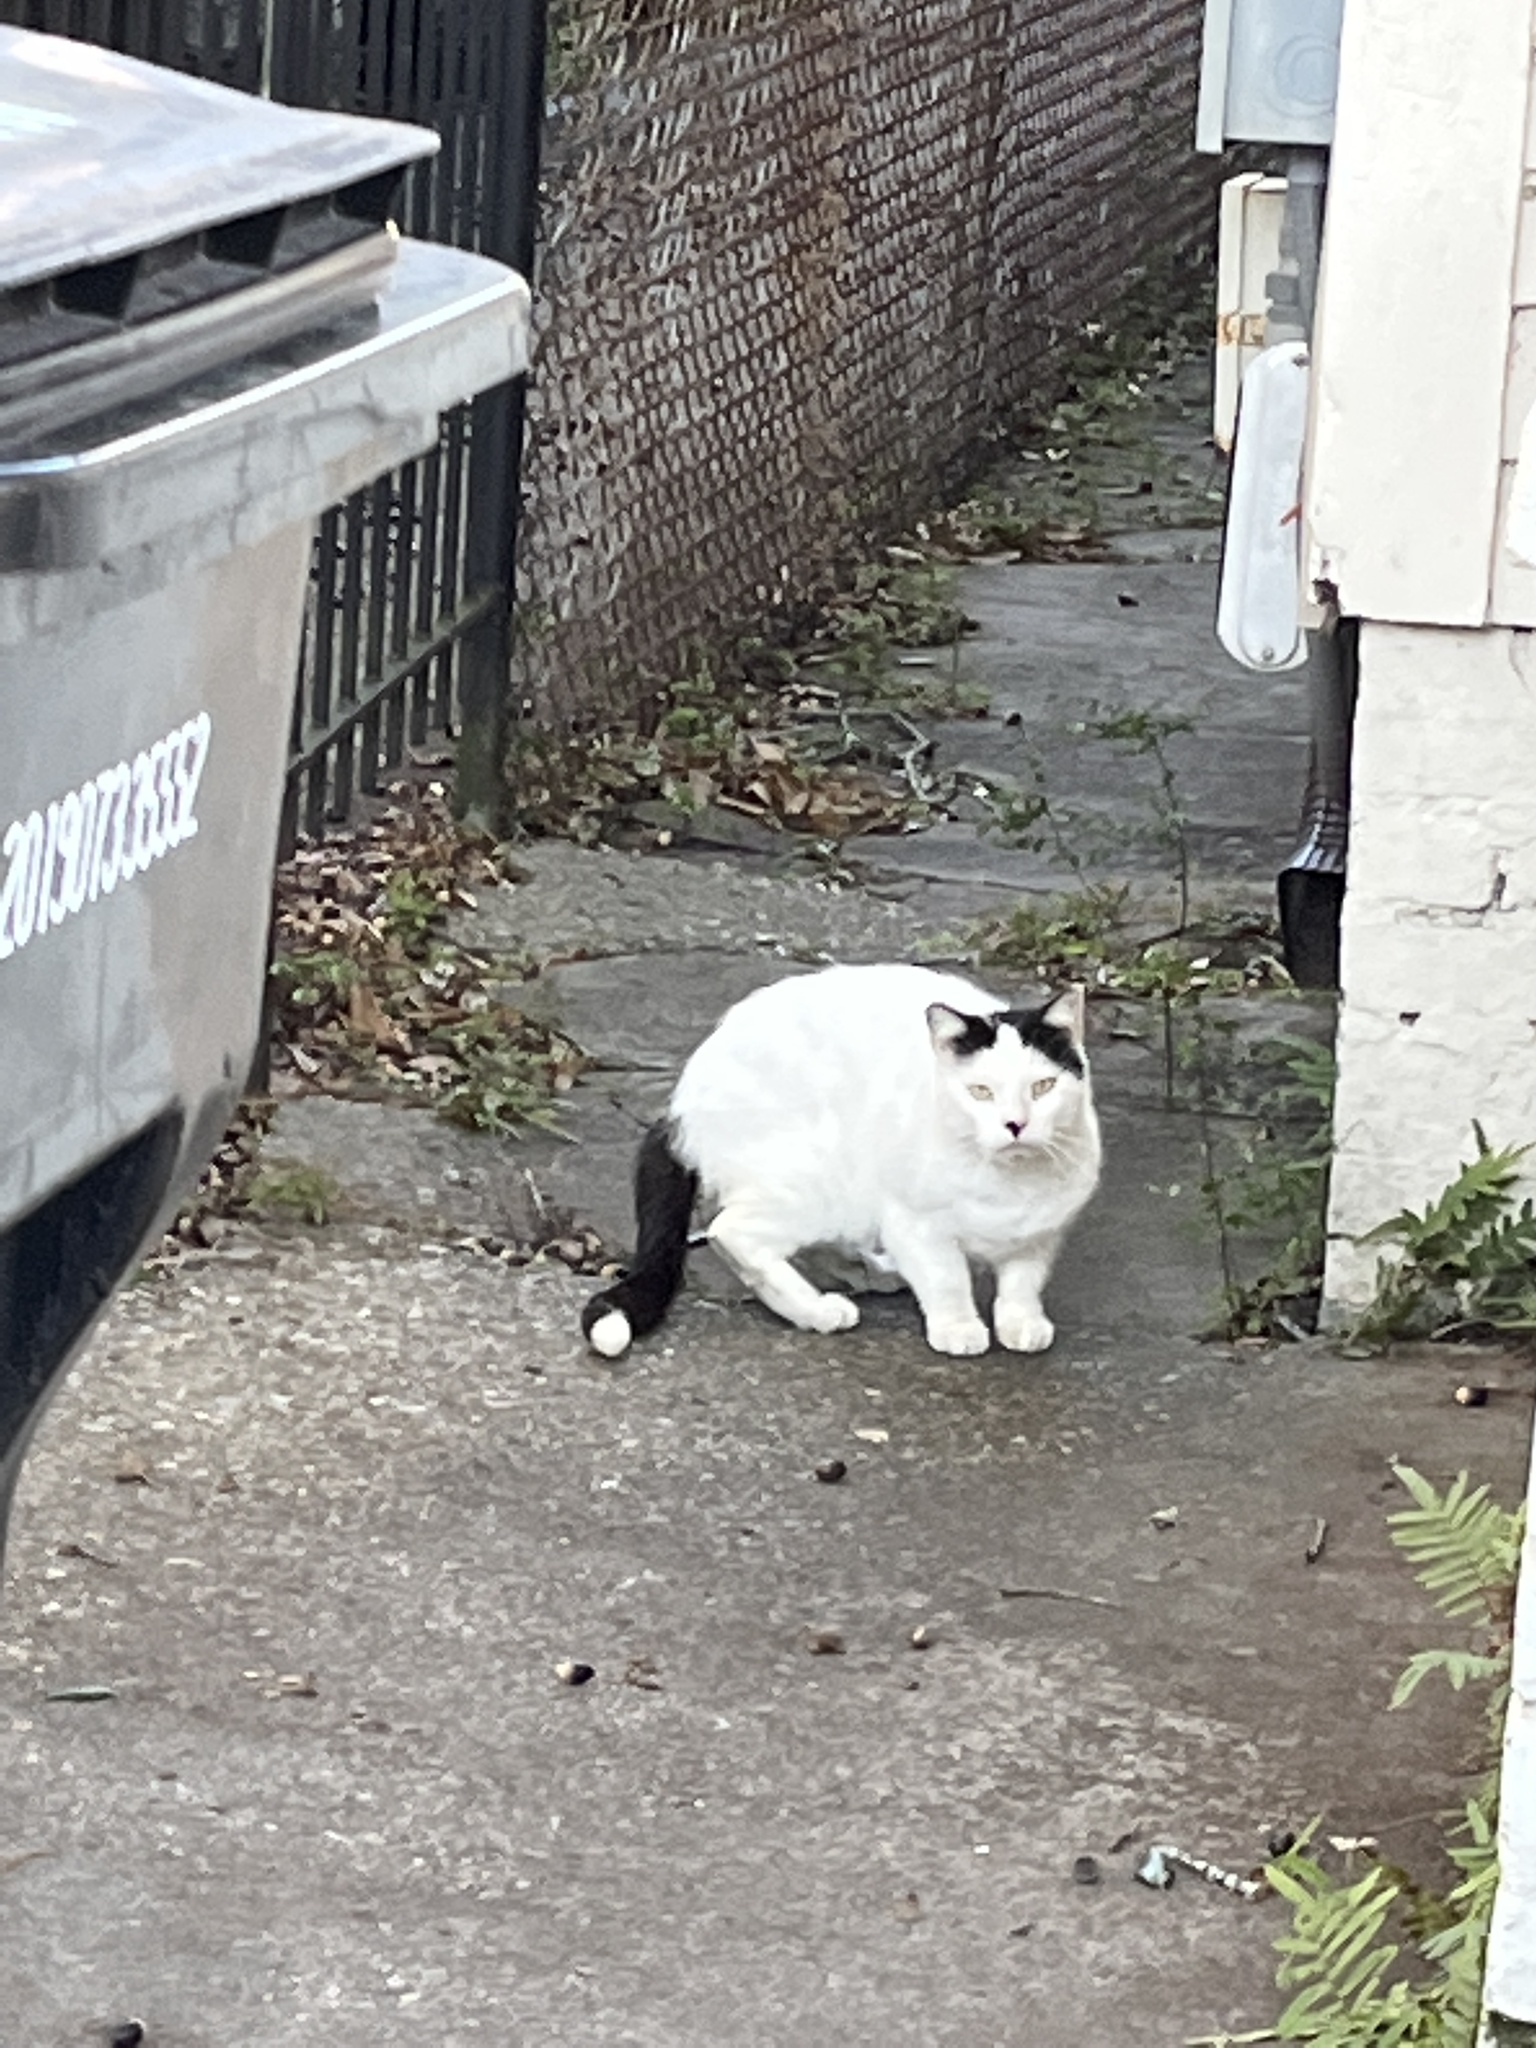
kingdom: Animalia
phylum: Chordata
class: Mammalia
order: Carnivora
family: Felidae
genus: Felis
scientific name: Felis catus
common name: Domestic cat
